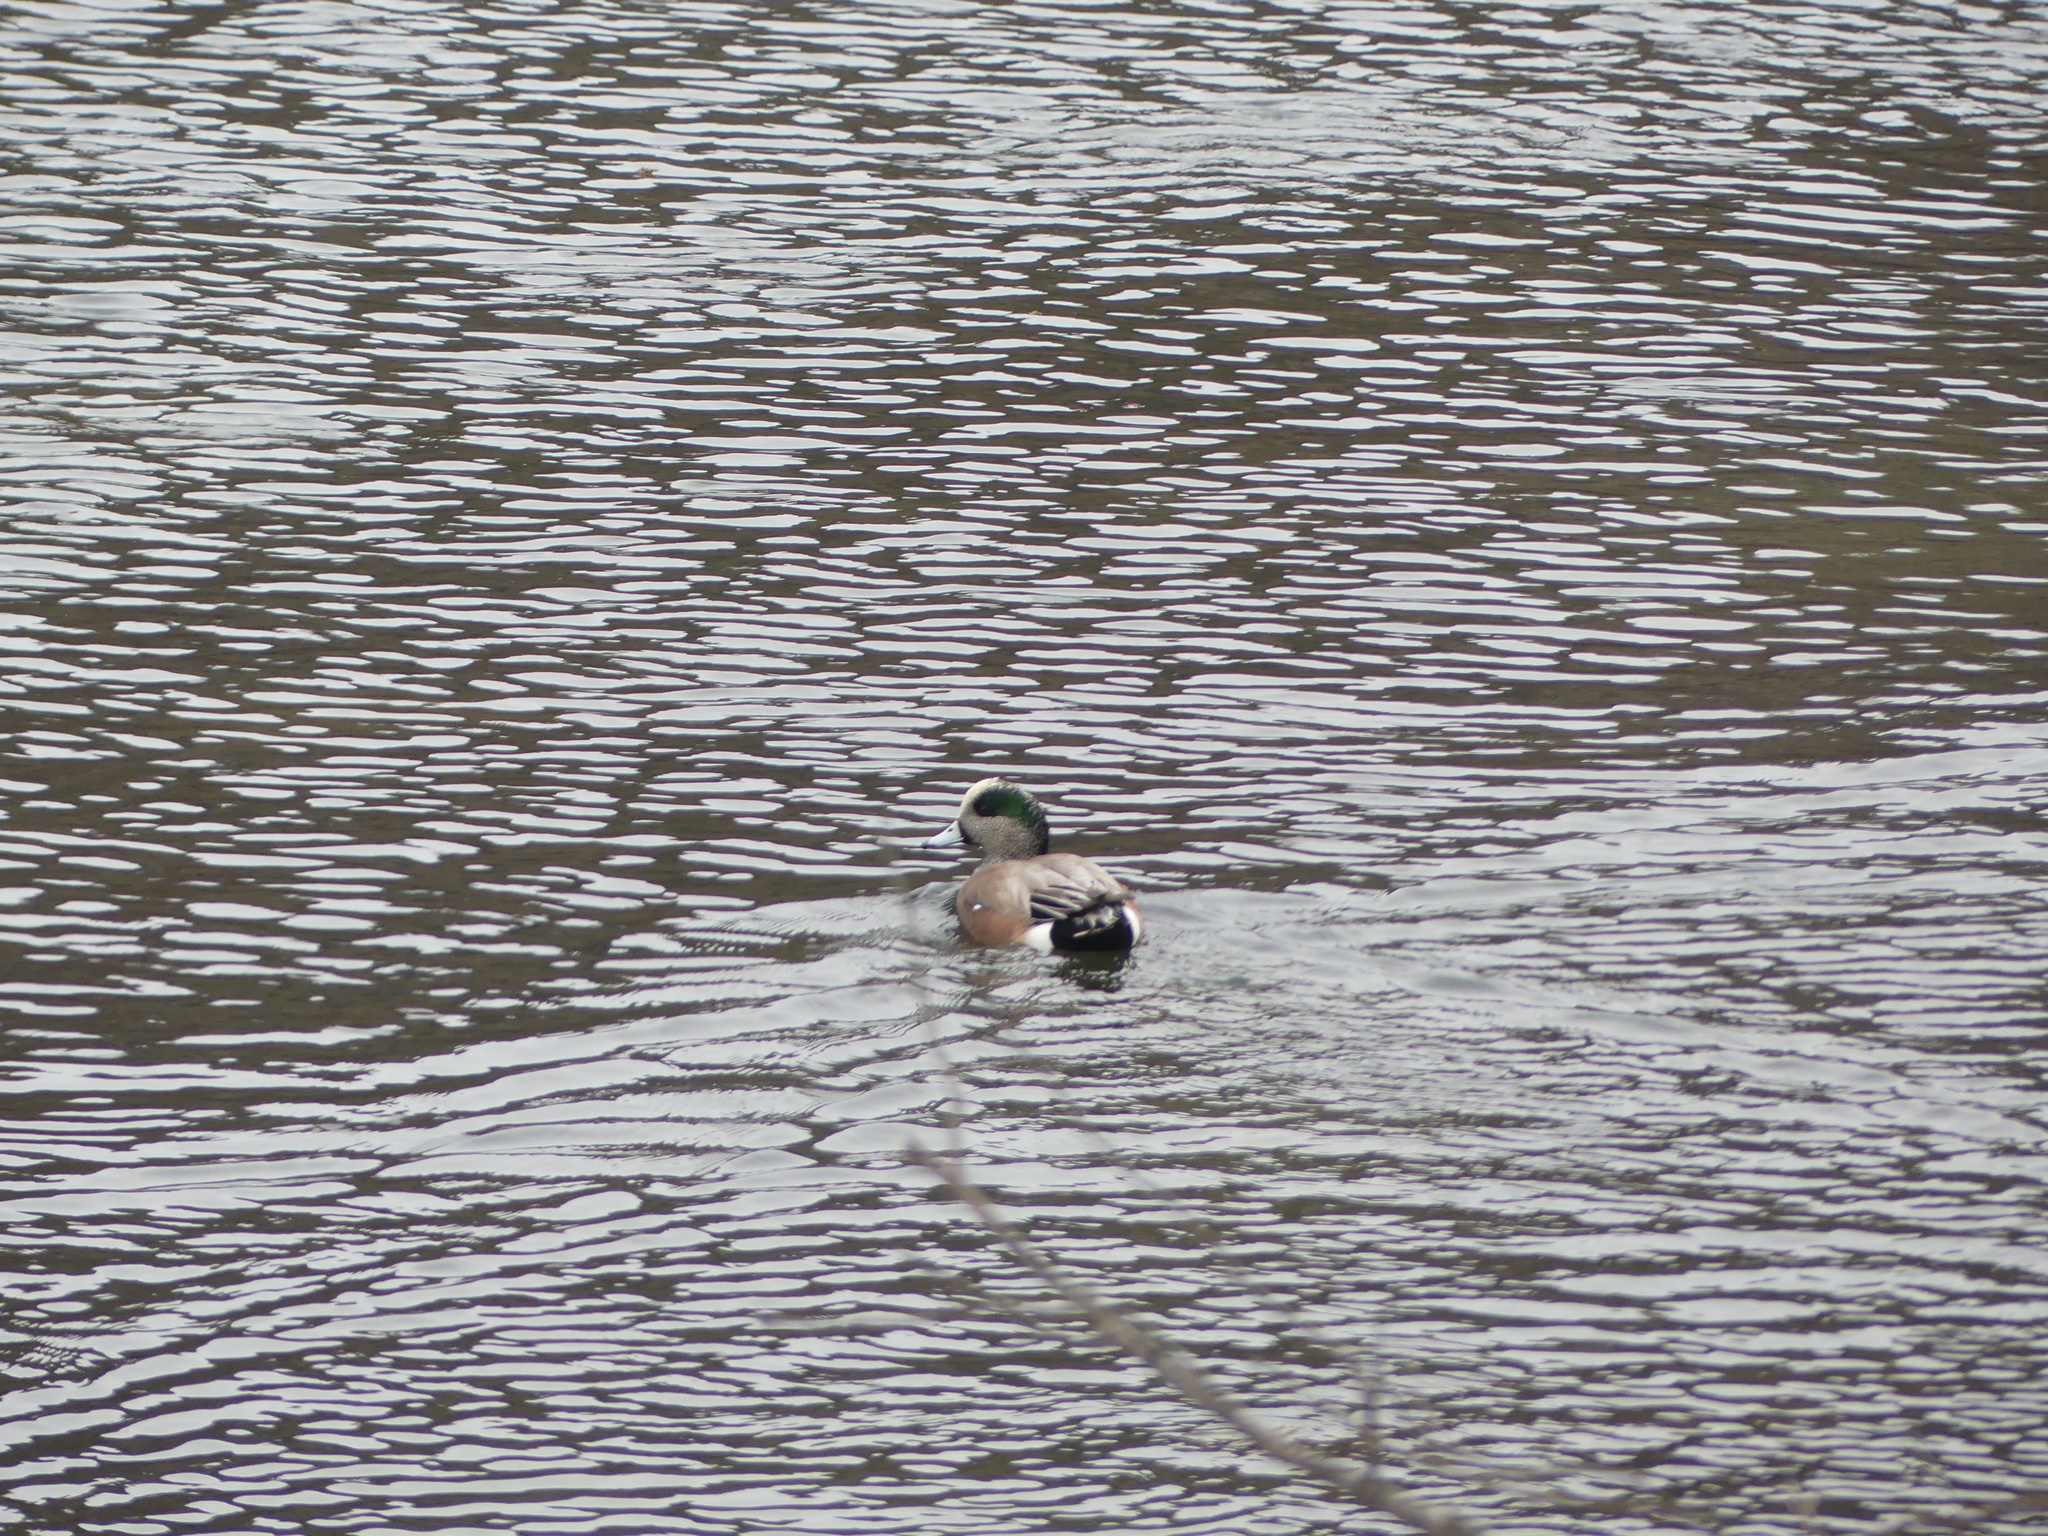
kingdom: Animalia
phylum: Chordata
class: Aves
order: Anseriformes
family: Anatidae
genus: Mareca
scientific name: Mareca americana
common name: American wigeon
